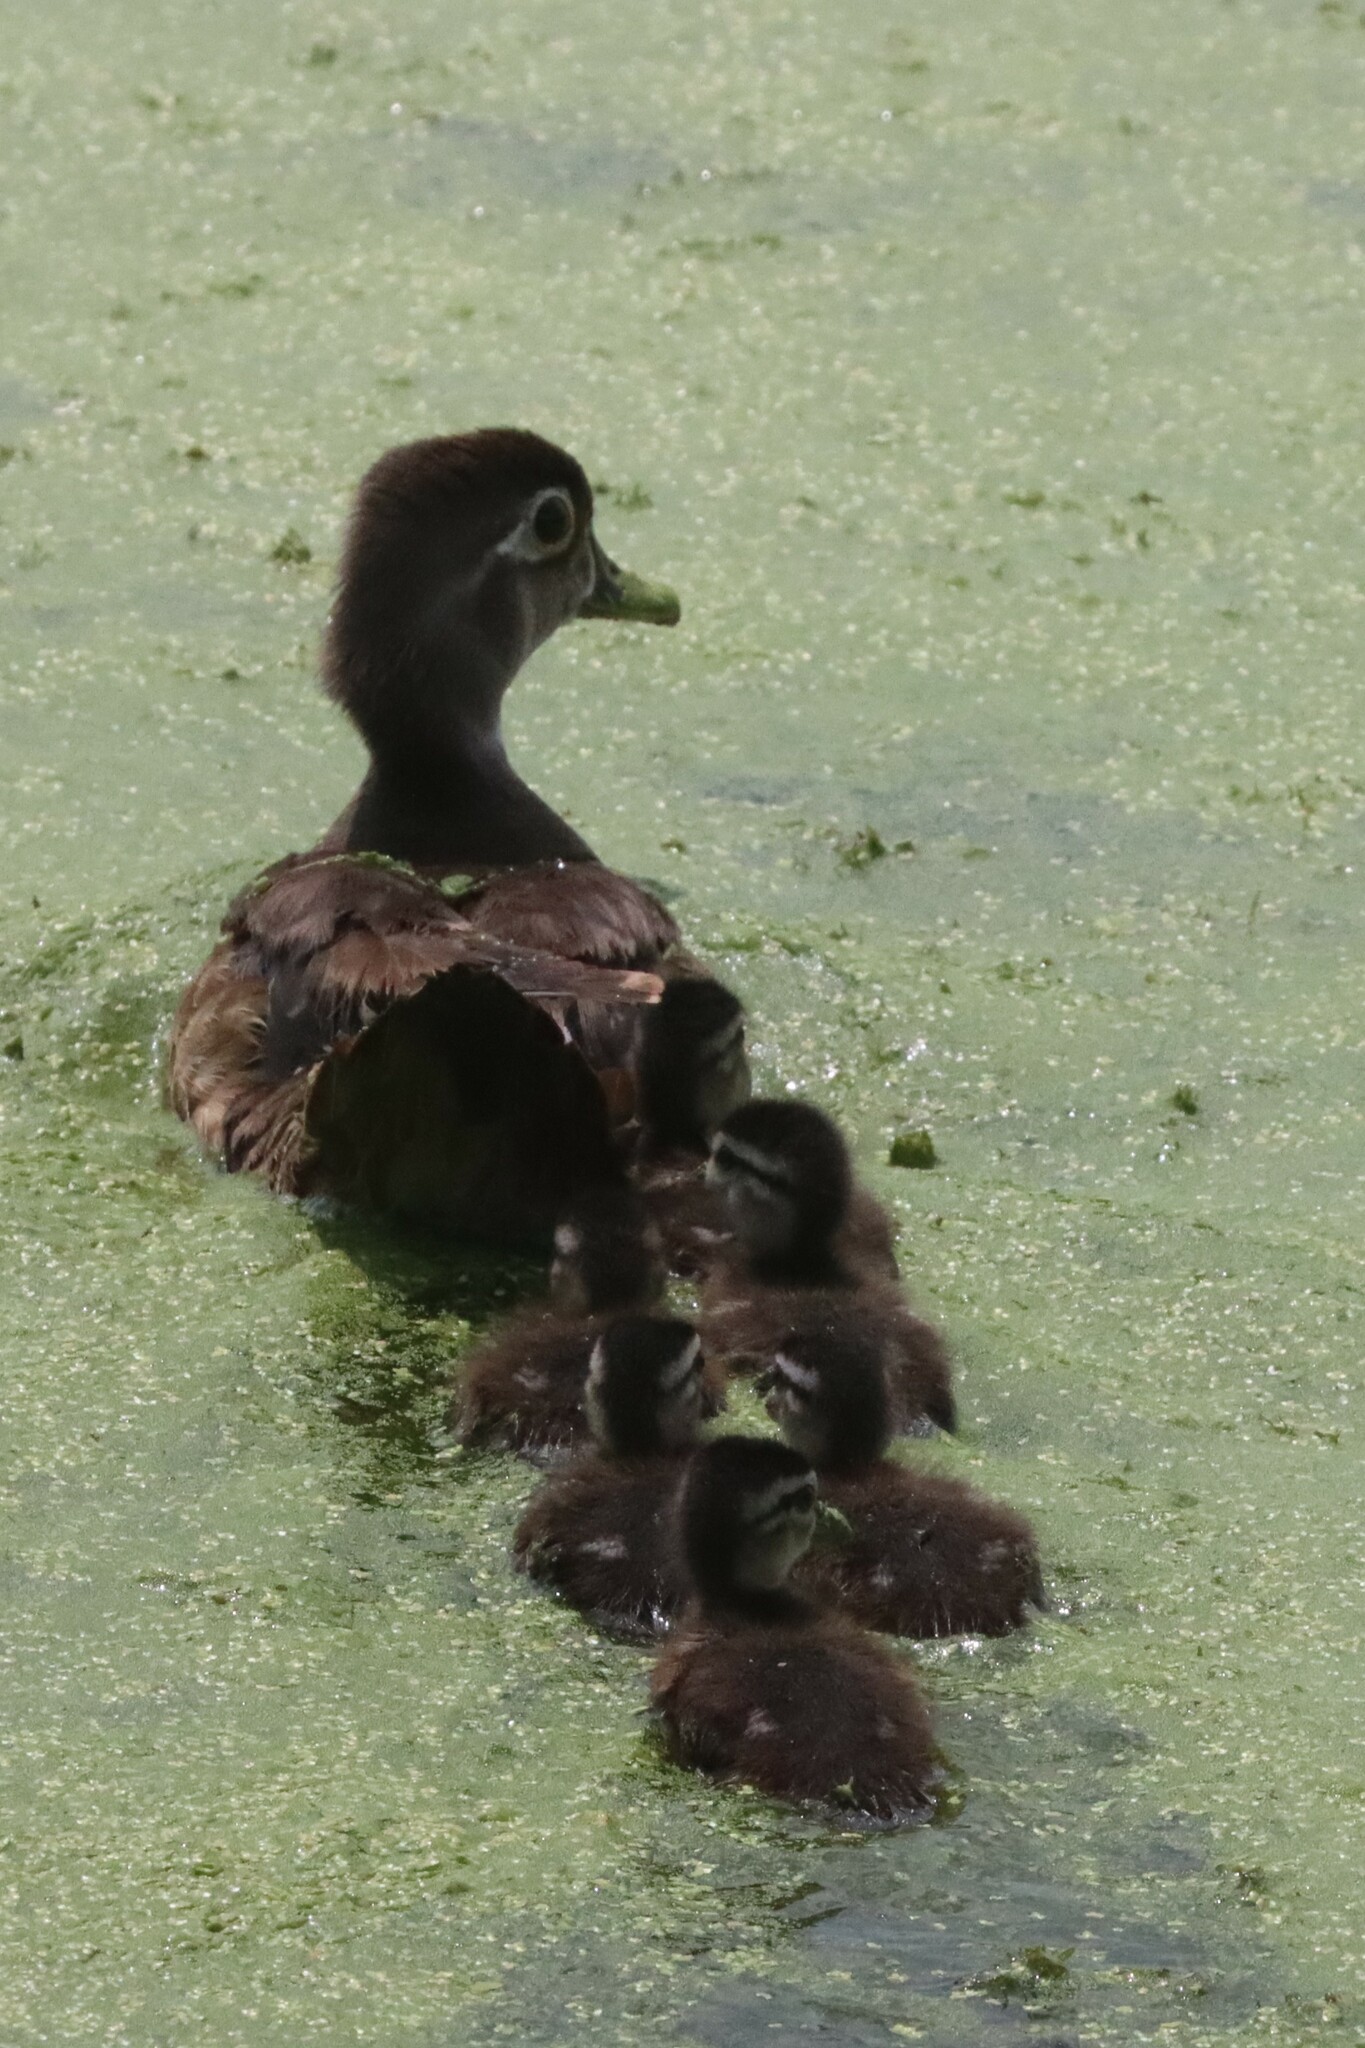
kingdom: Animalia
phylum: Chordata
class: Aves
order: Anseriformes
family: Anatidae
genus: Aix
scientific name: Aix sponsa
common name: Wood duck
